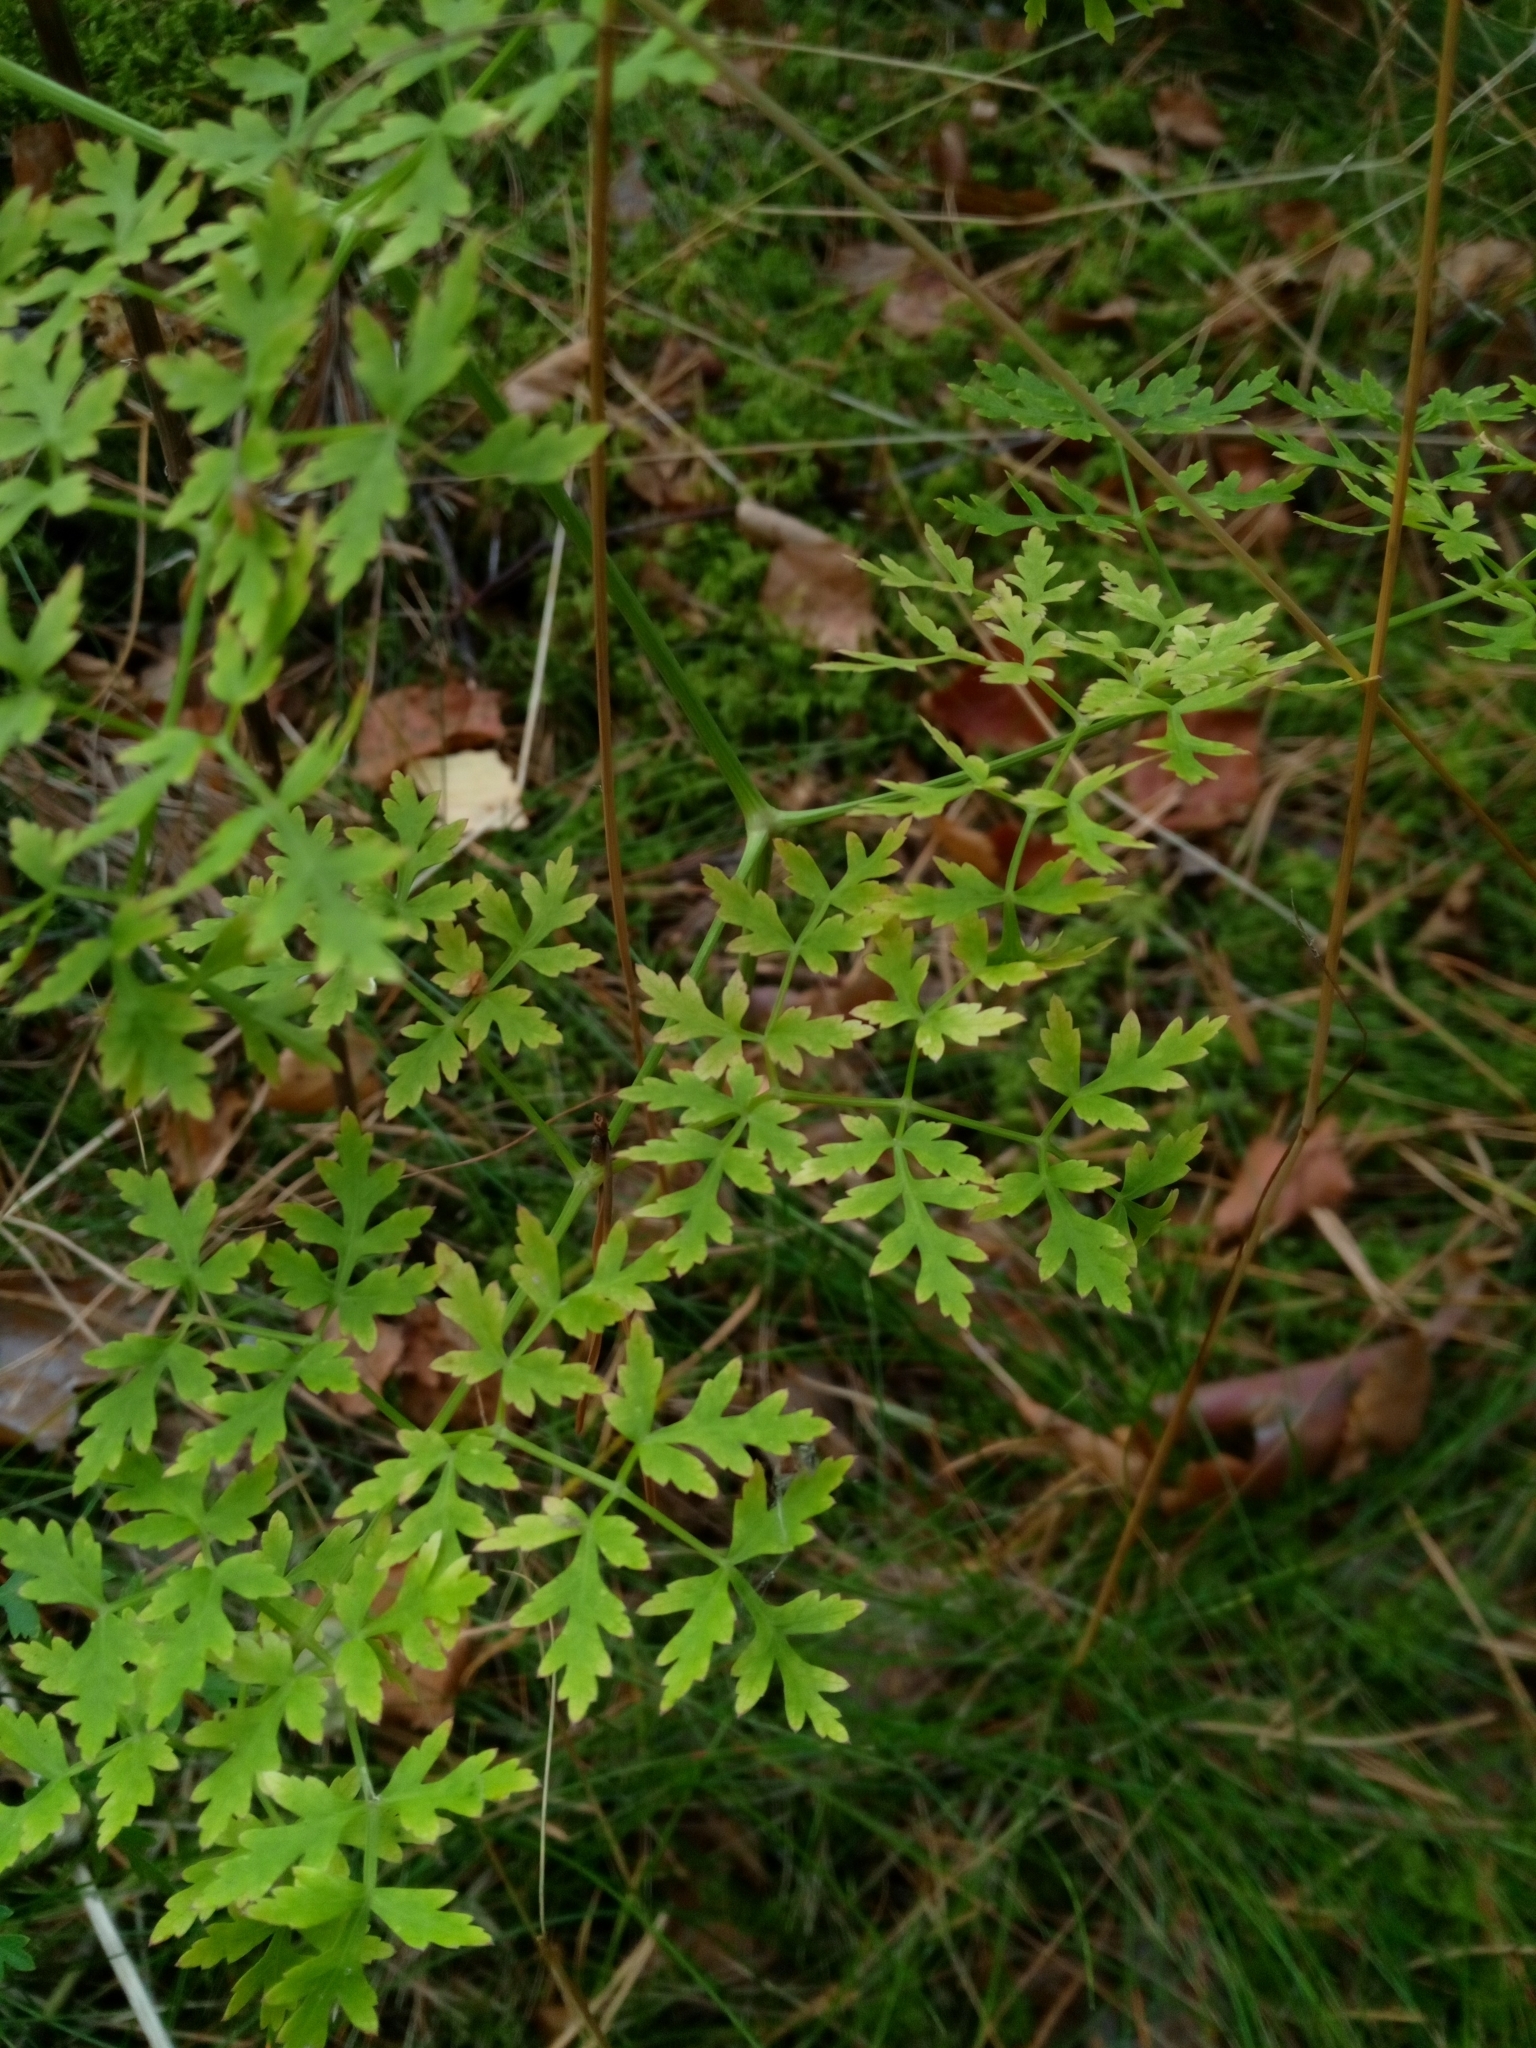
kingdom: Plantae
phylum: Tracheophyta
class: Magnoliopsida
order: Apiales
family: Apiaceae
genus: Oreoselinum
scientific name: Oreoselinum nigrum
